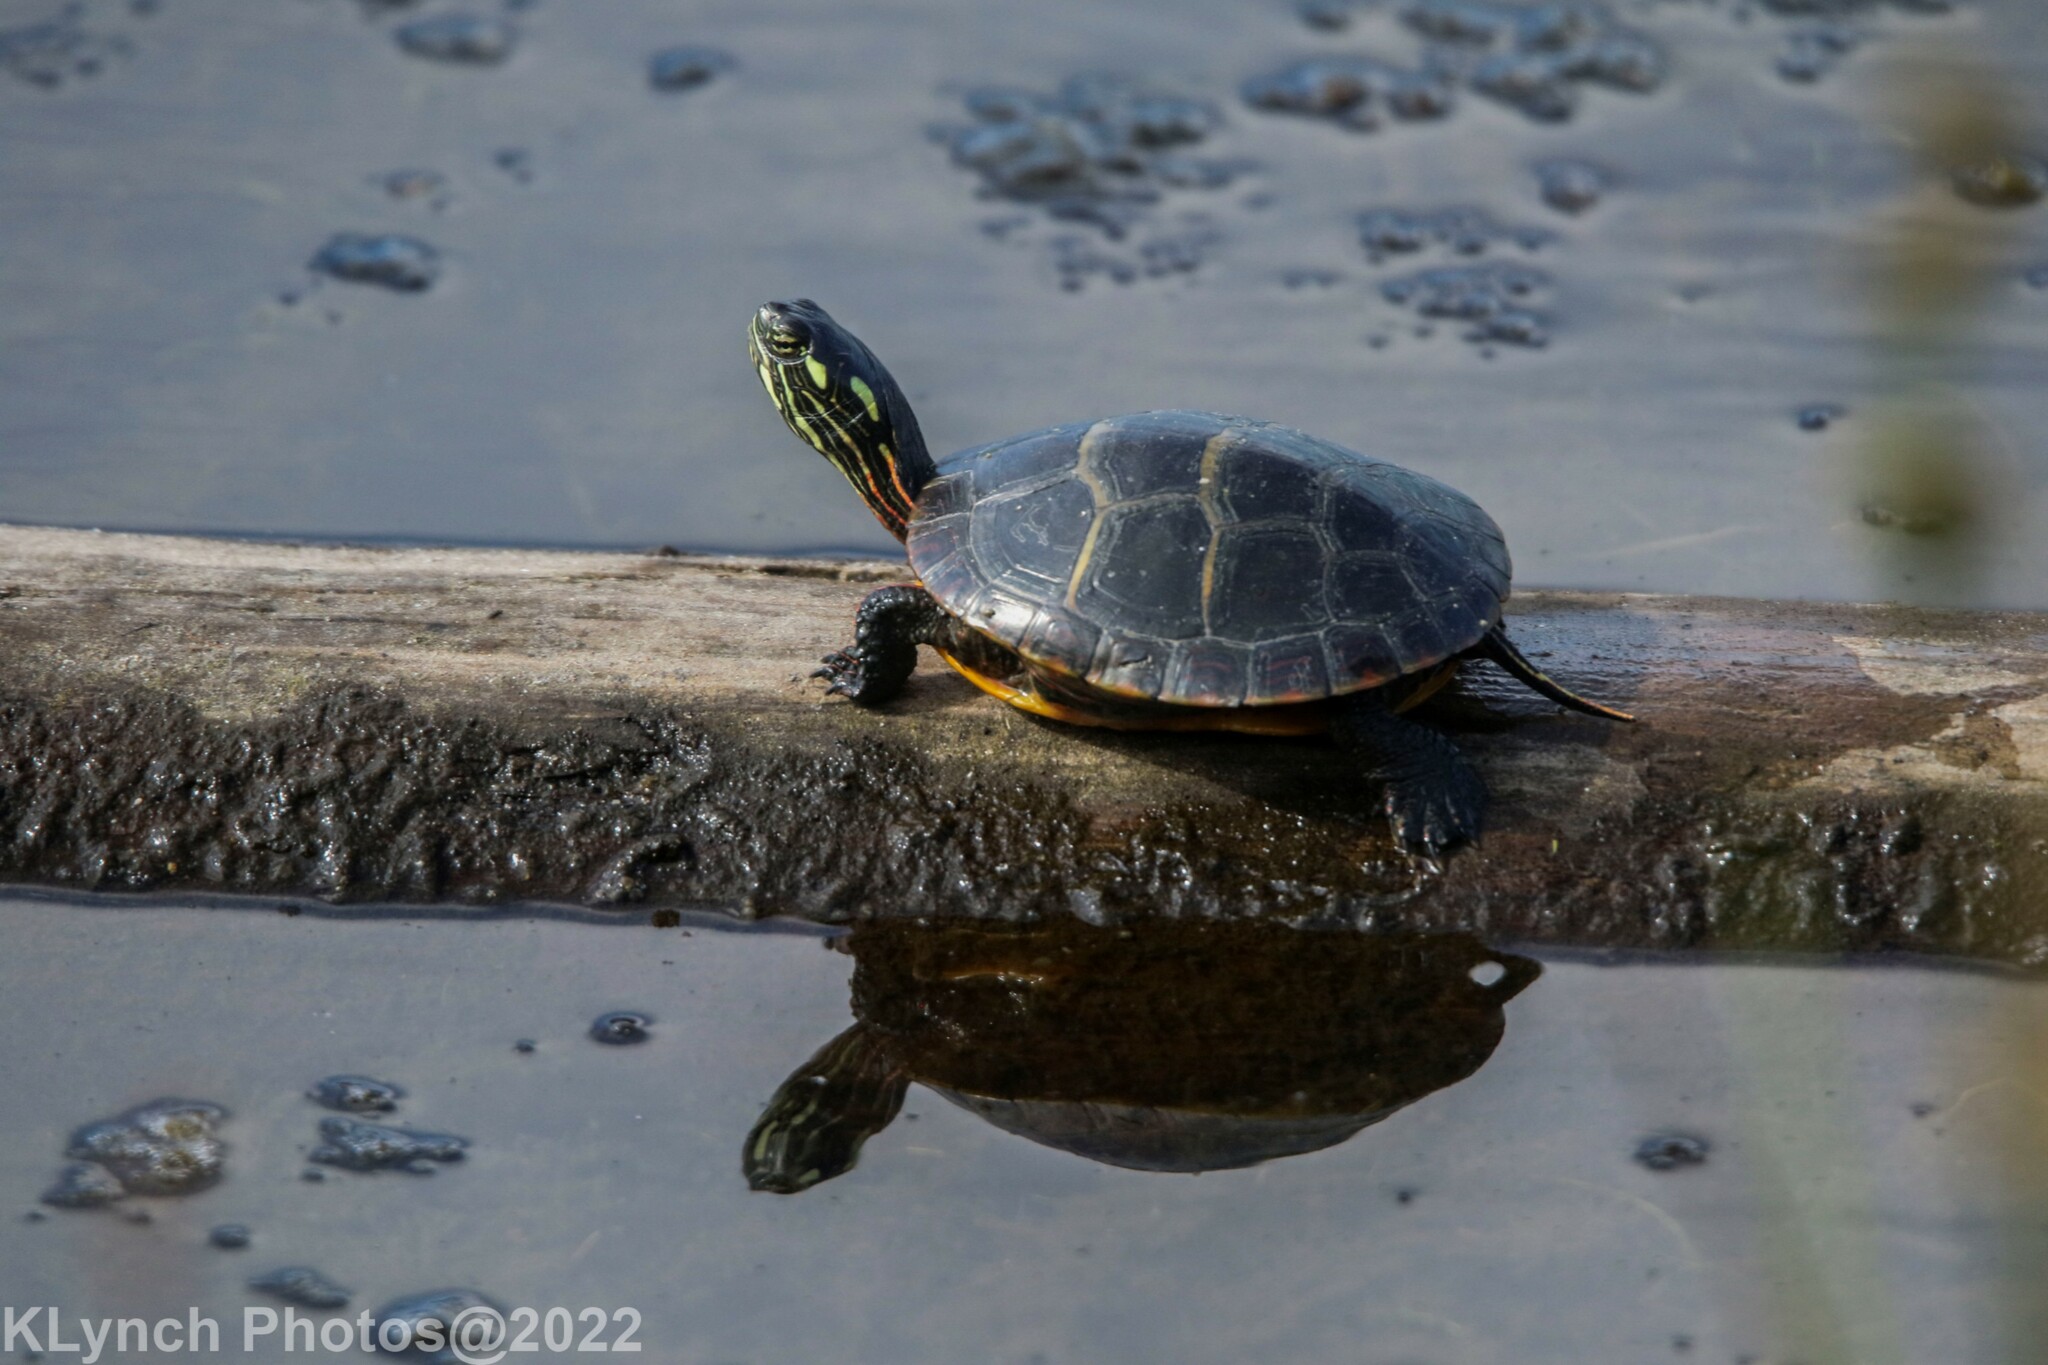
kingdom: Animalia
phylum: Chordata
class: Testudines
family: Emydidae
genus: Chrysemys
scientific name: Chrysemys picta
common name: Painted turtle
